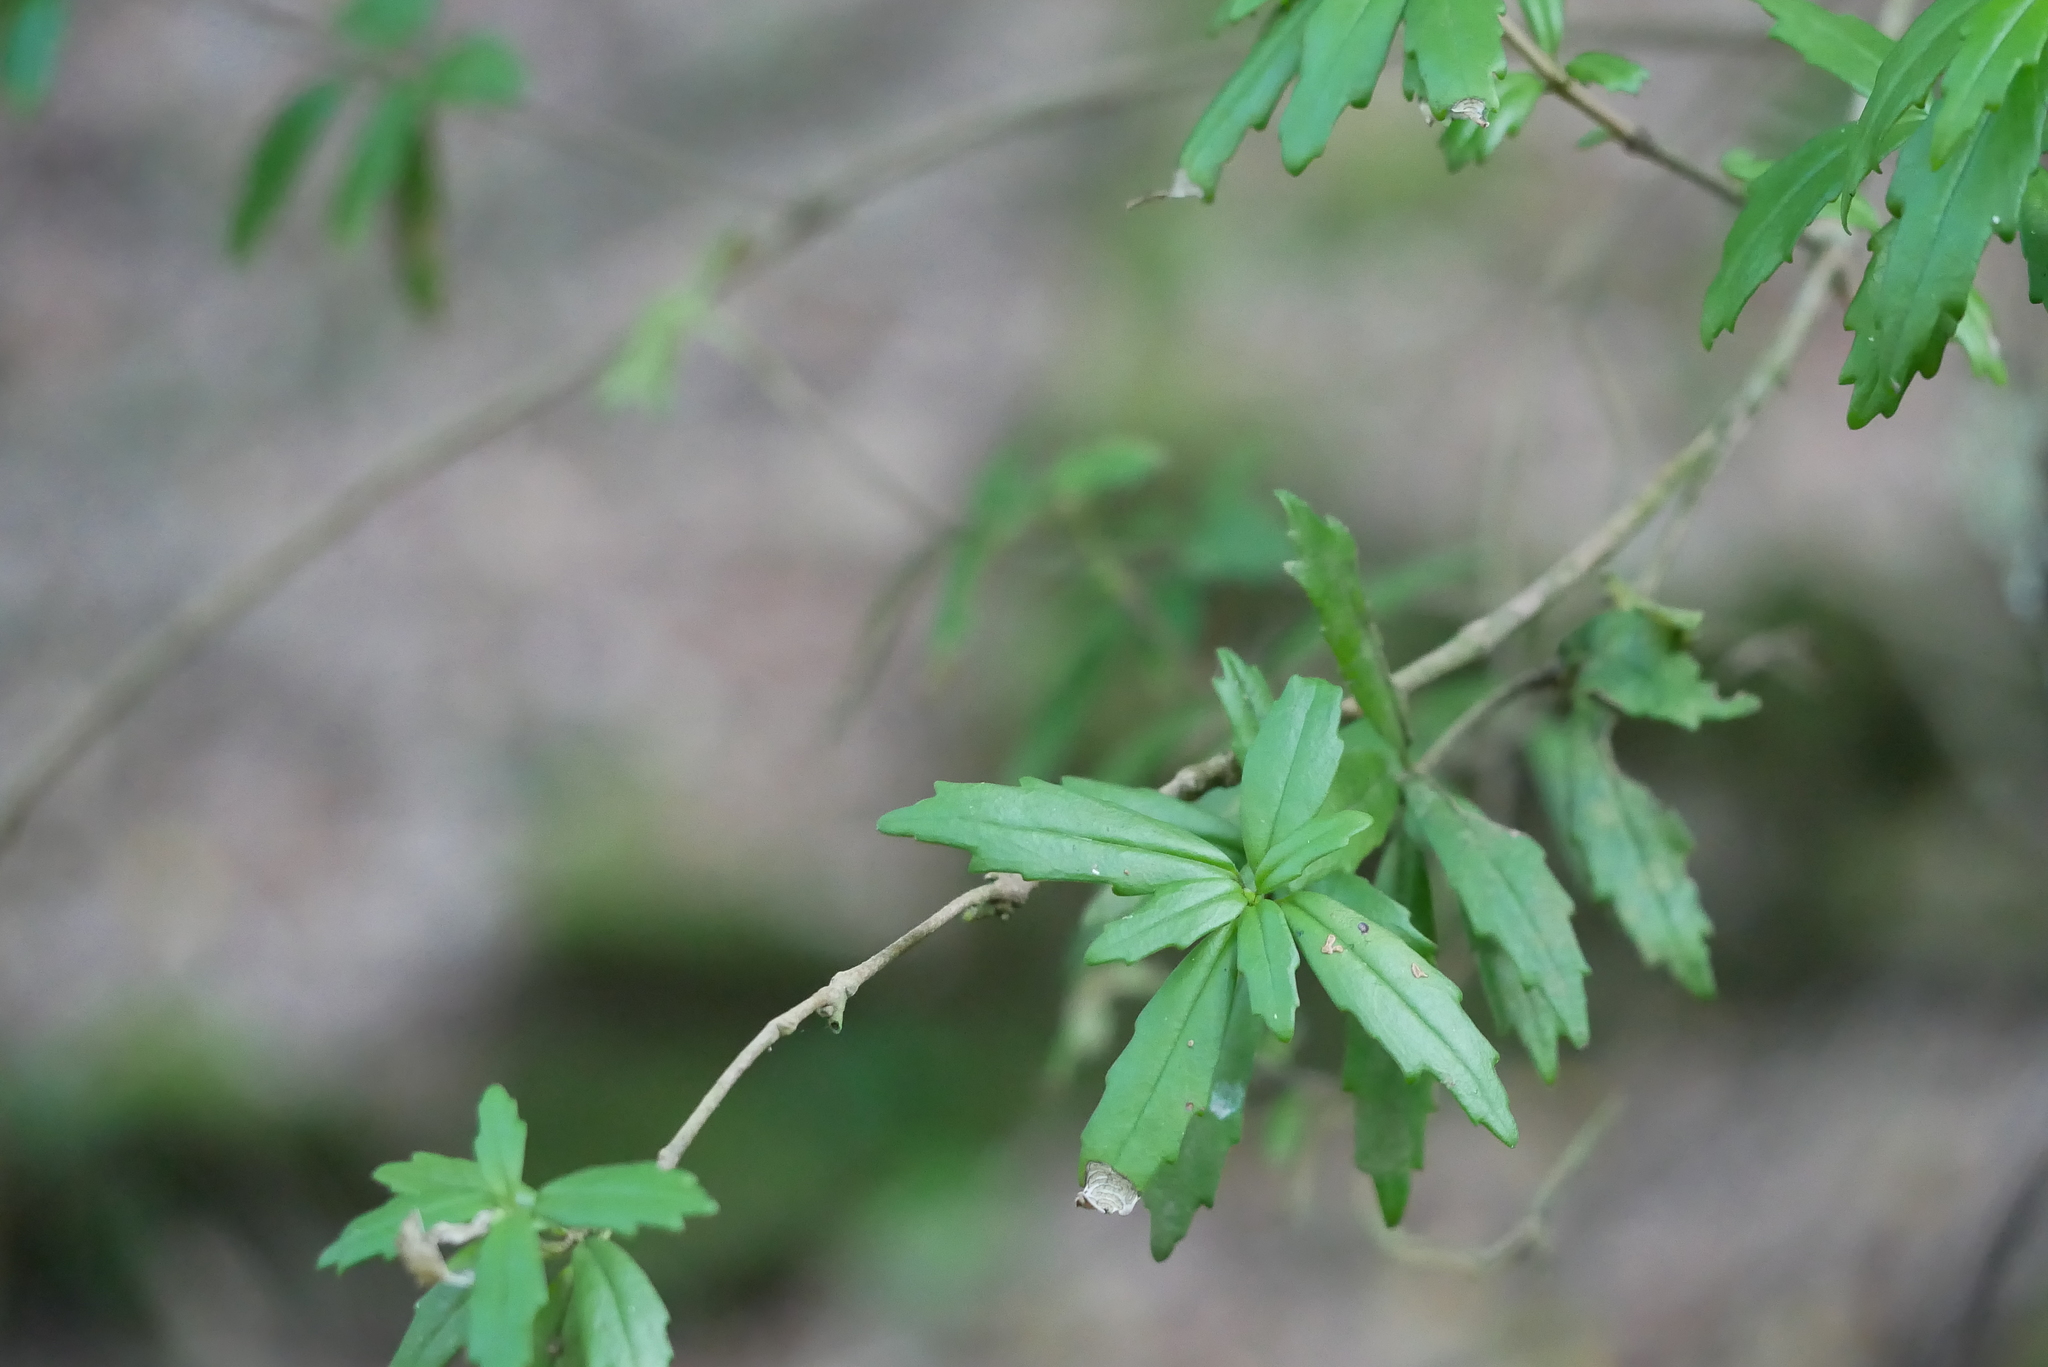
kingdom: Plantae
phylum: Tracheophyta
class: Magnoliopsida
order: Lamiales
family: Gesneriaceae
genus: Lysionotus
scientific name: Lysionotus pauciflorus
